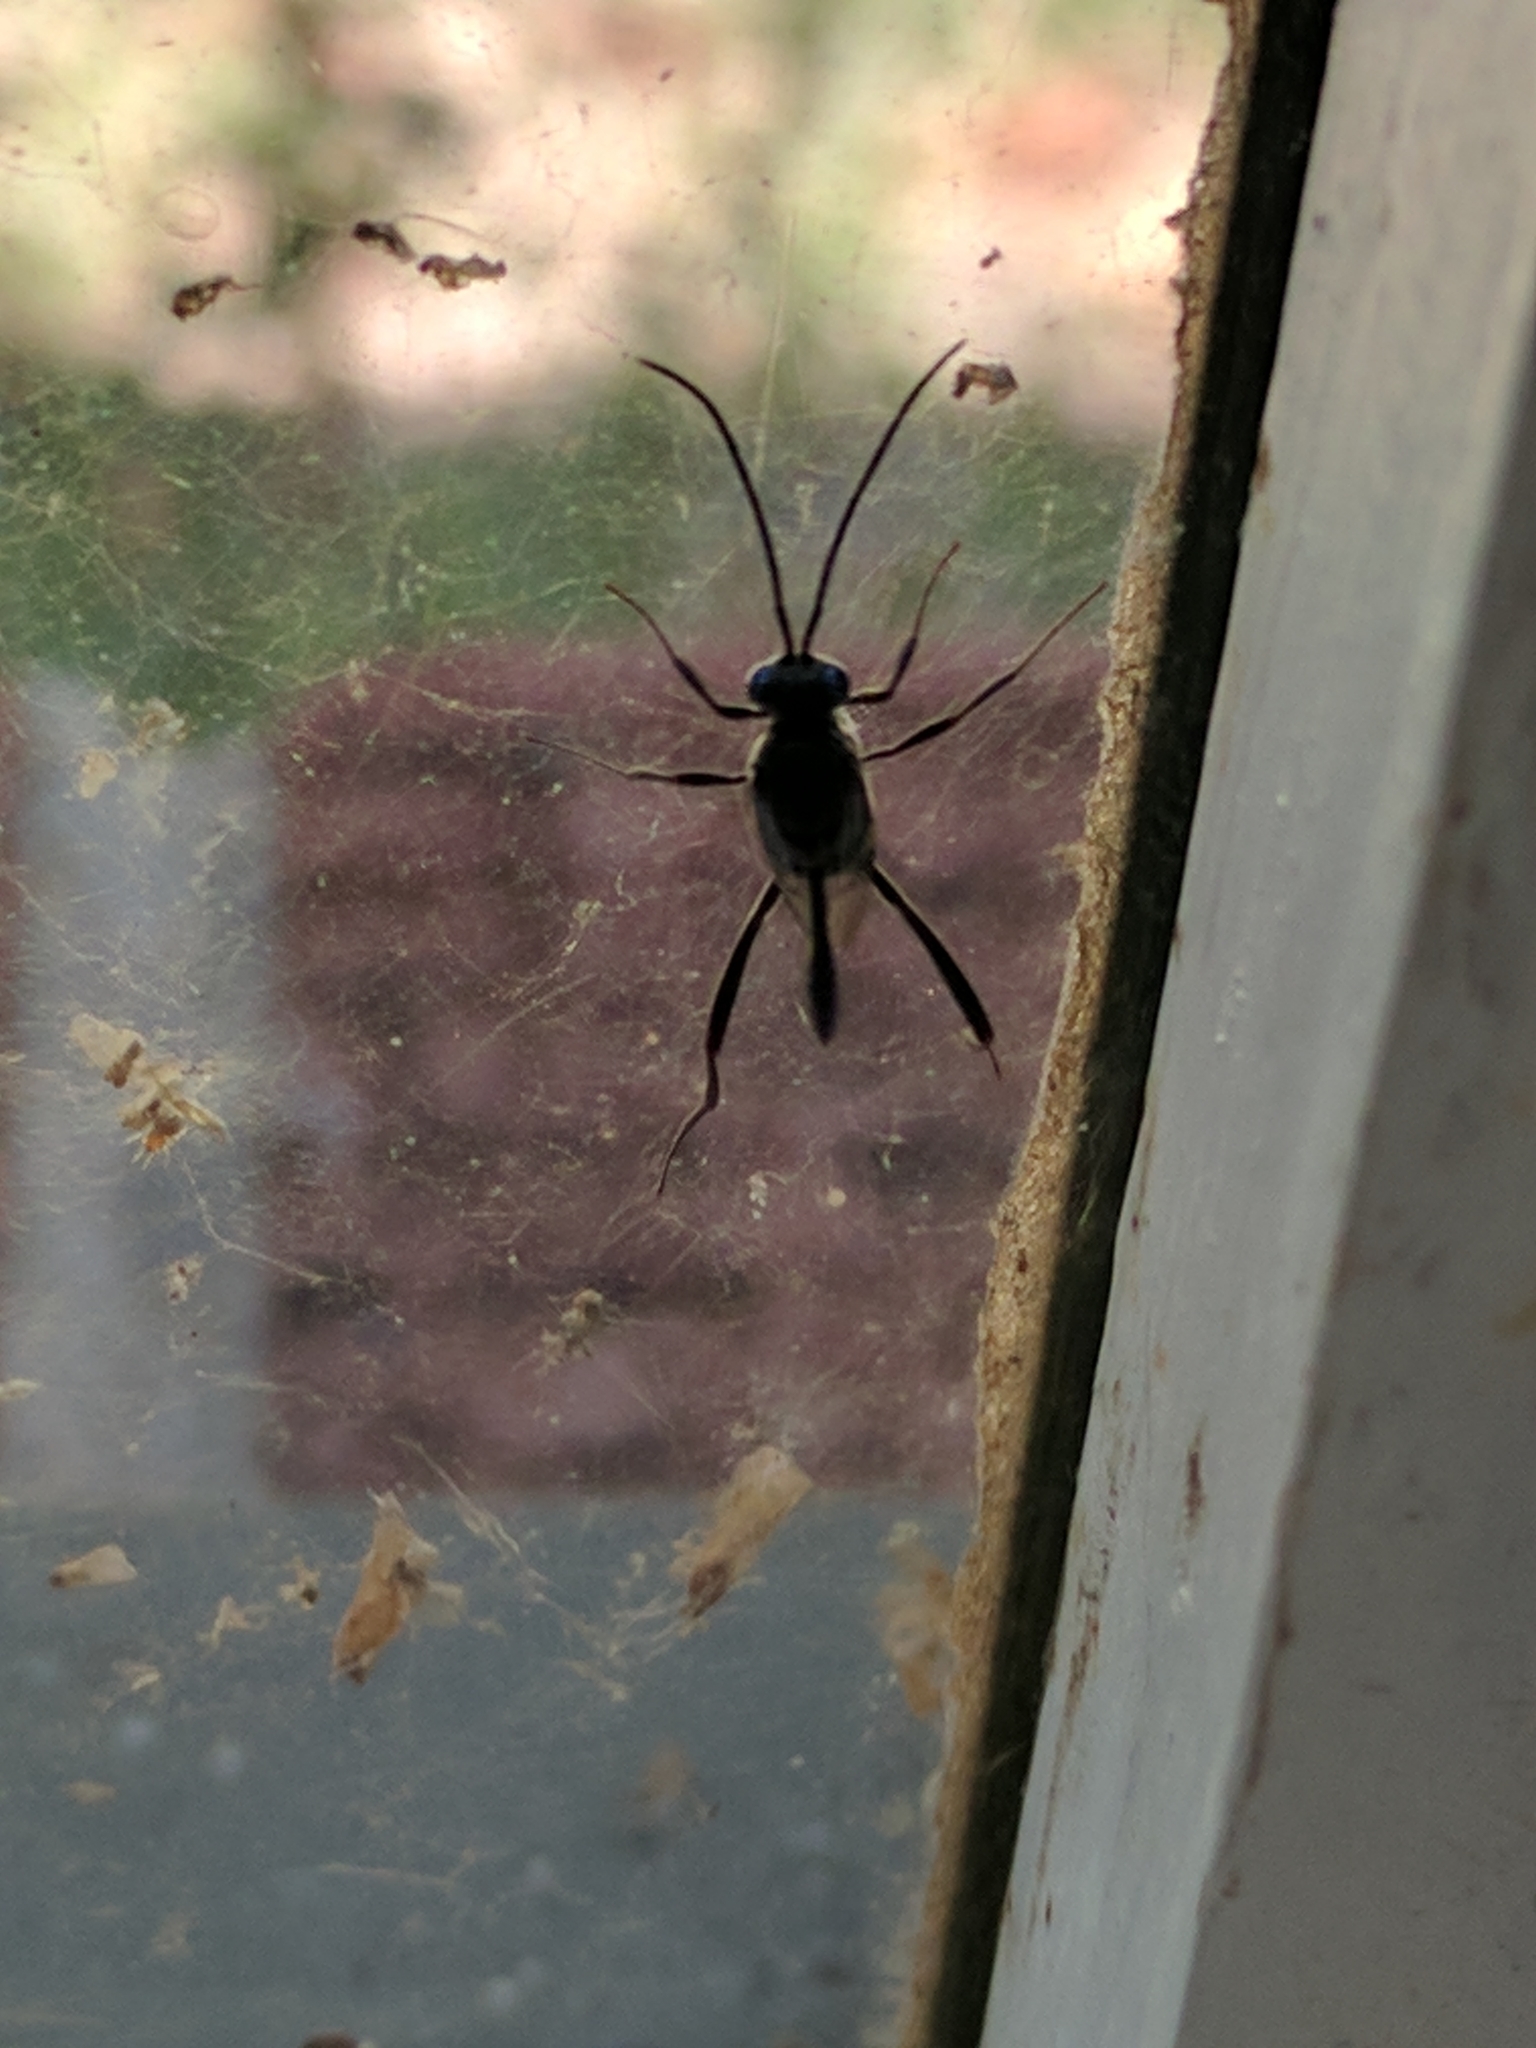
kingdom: Animalia
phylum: Arthropoda
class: Insecta
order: Hymenoptera
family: Evaniidae
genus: Evania
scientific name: Evania appendigaster
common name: Ensign wasp
